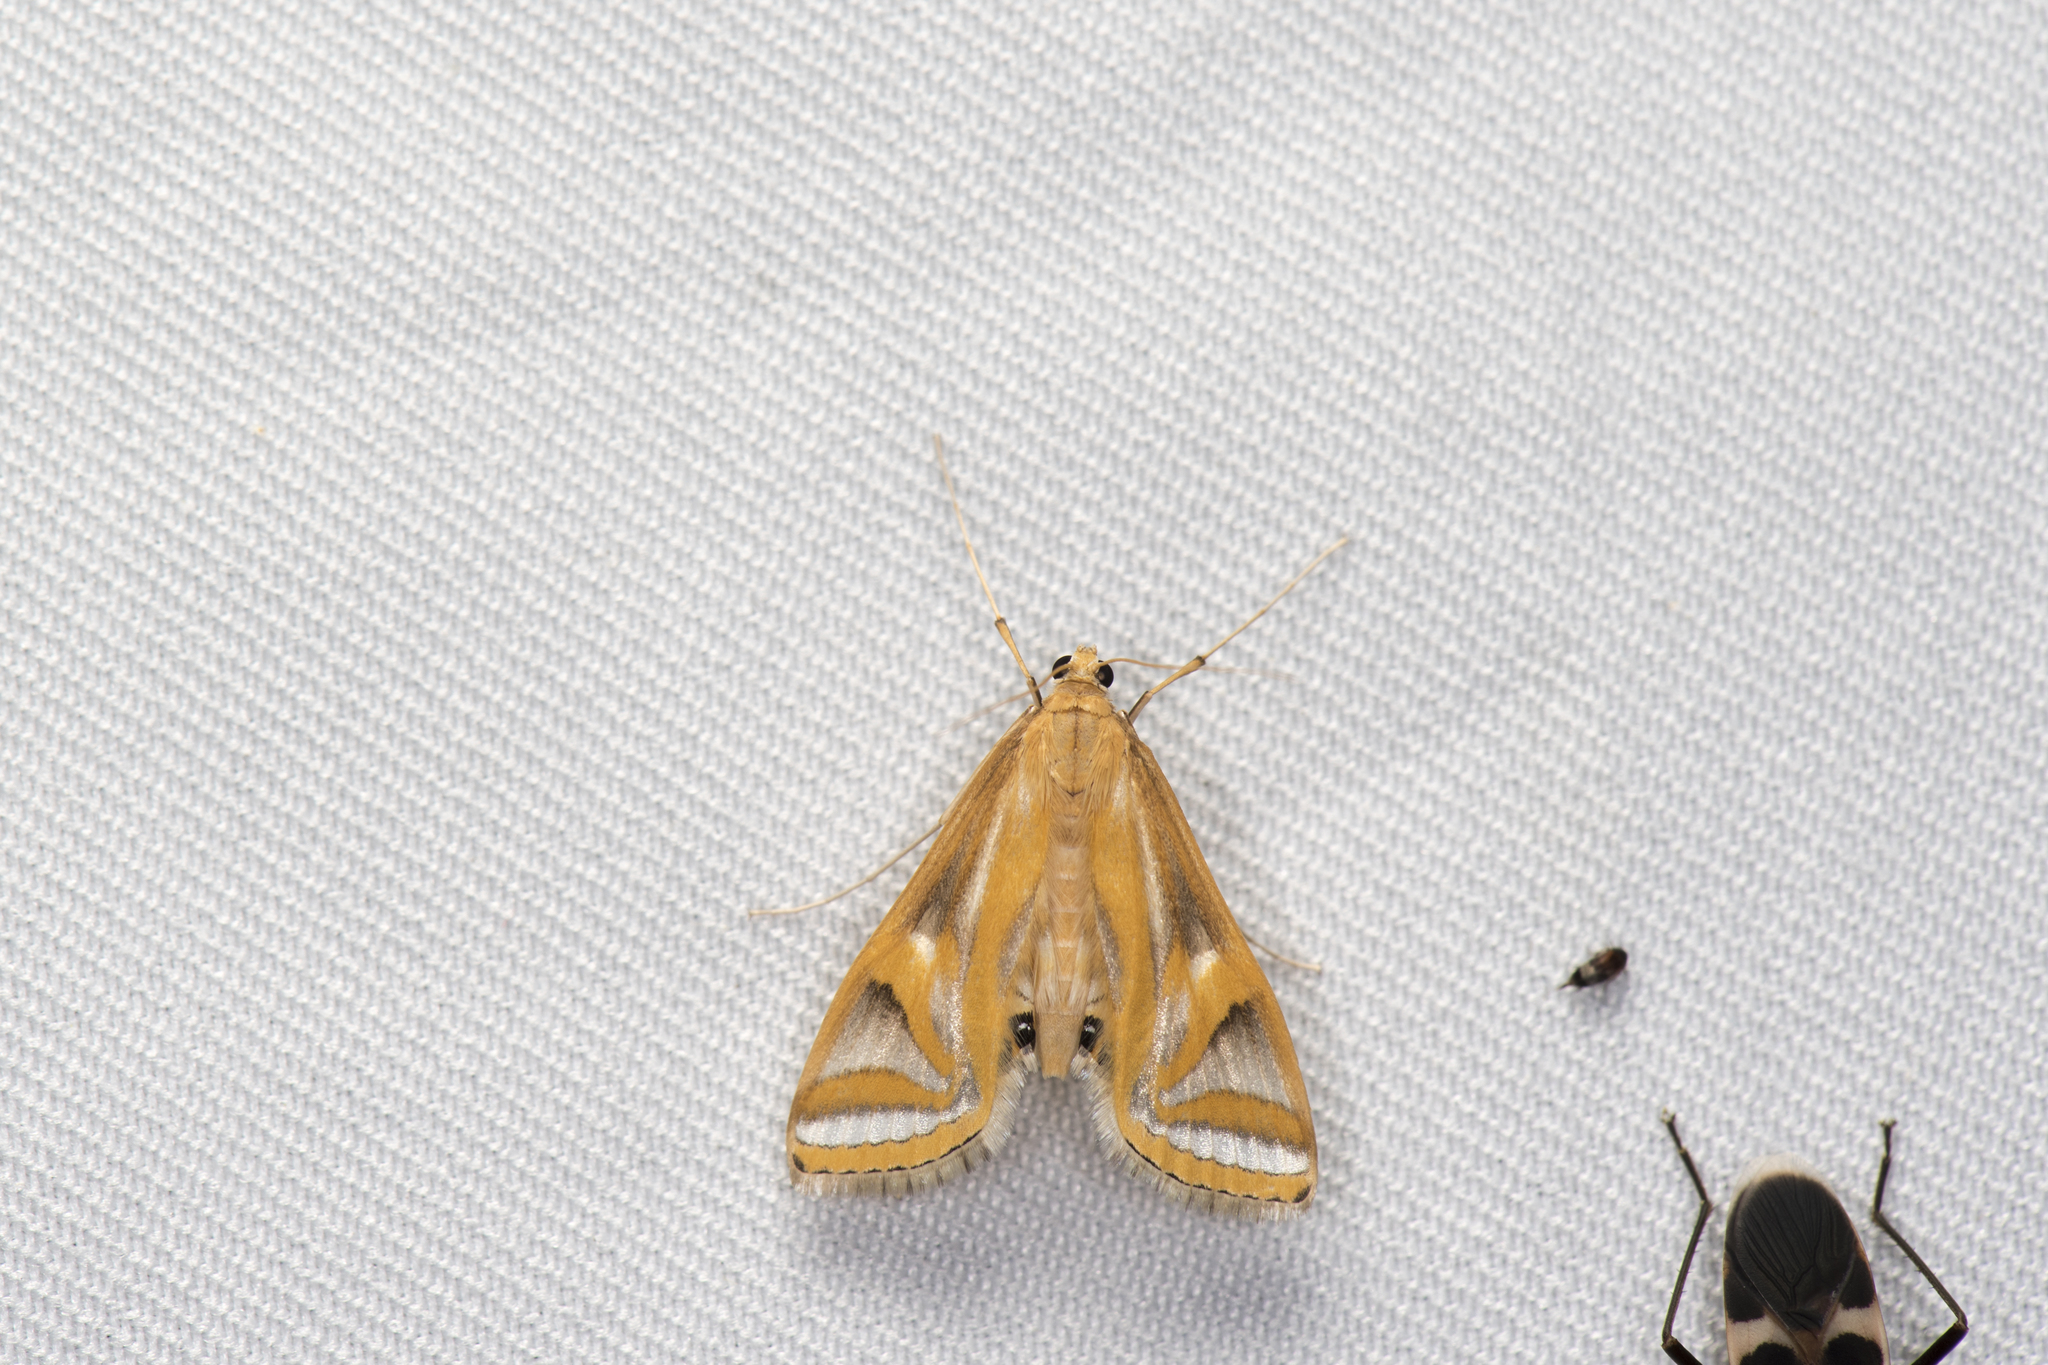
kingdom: Animalia
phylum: Arthropoda
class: Insecta
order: Lepidoptera
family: Crambidae
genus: Eoophyla
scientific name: Eoophyla conjunctalis
